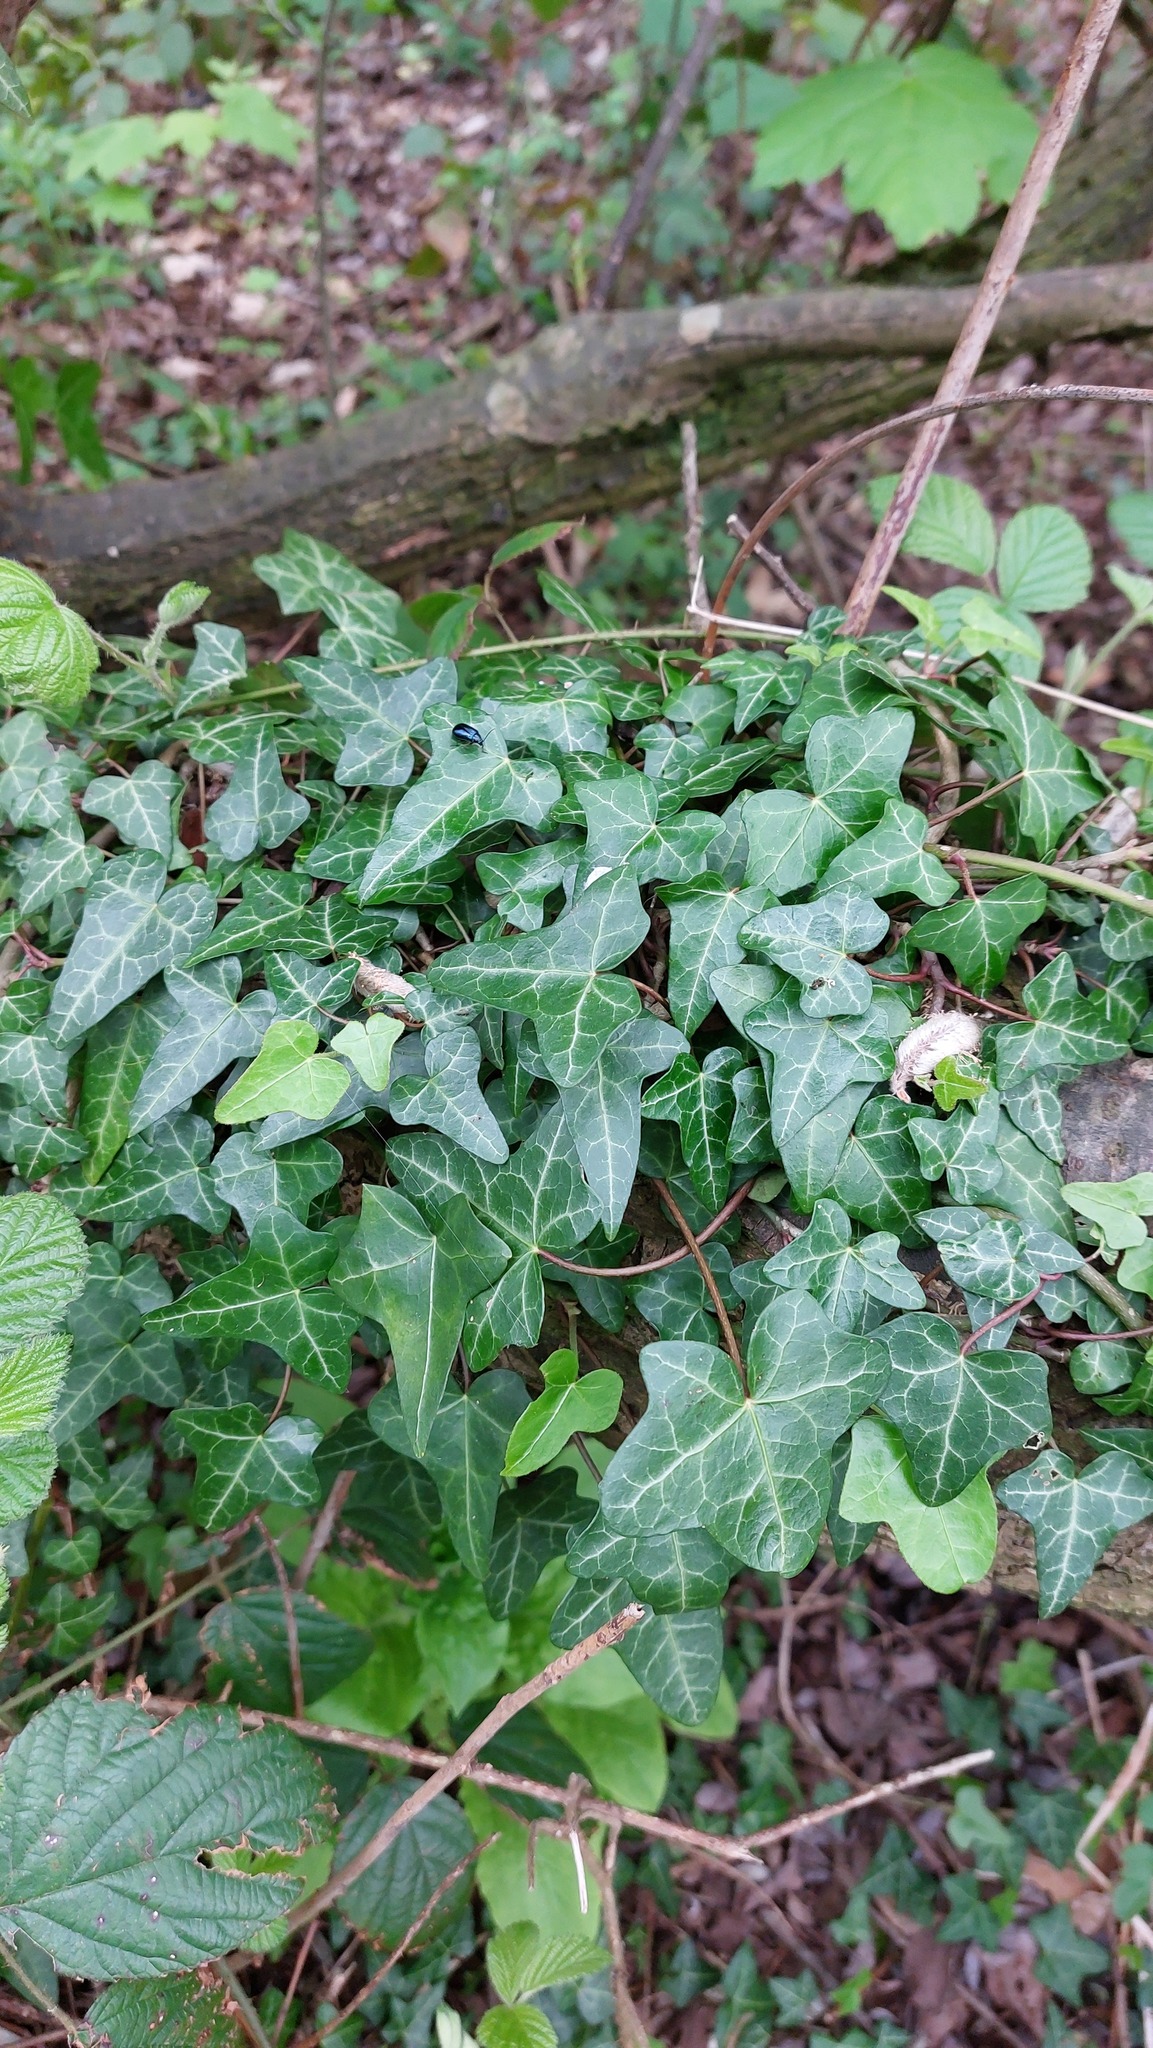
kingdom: Plantae
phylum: Tracheophyta
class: Magnoliopsida
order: Apiales
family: Araliaceae
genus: Hedera
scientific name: Hedera helix
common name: Ivy
